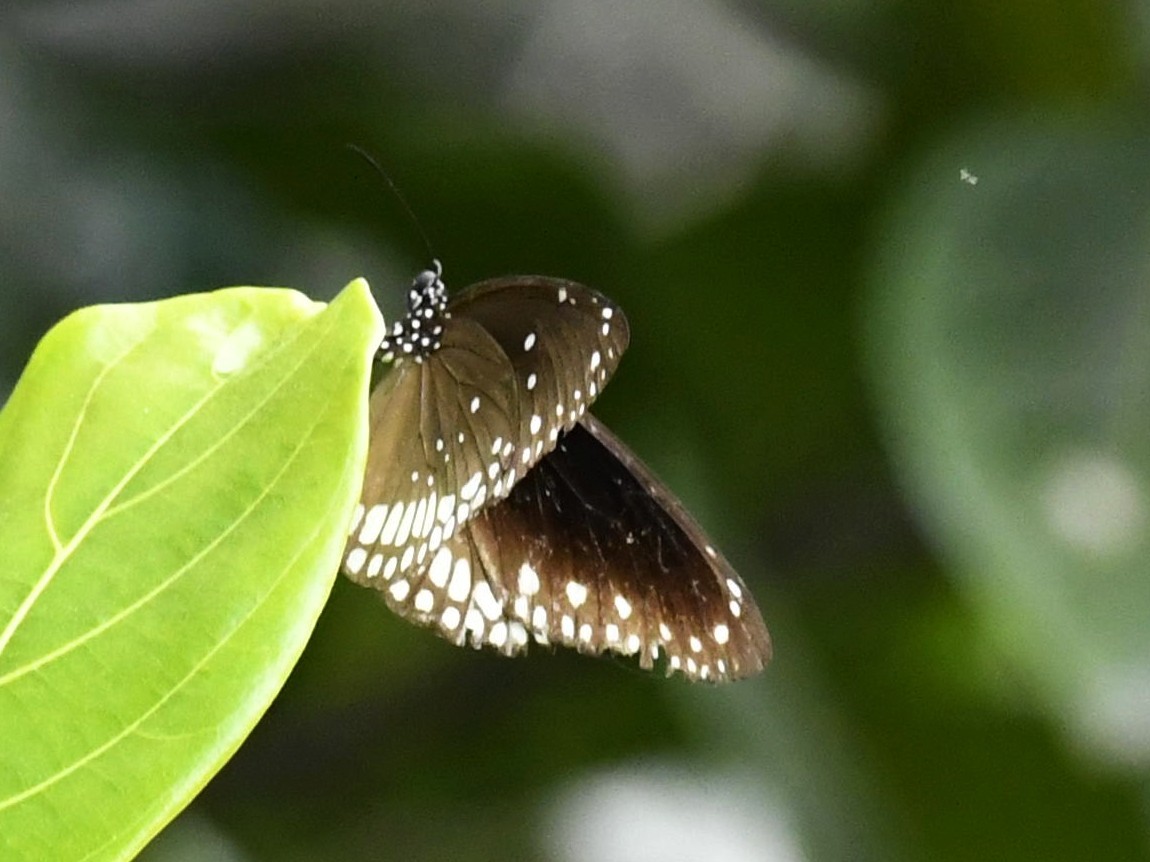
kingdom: Animalia
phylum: Arthropoda
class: Insecta
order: Lepidoptera
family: Nymphalidae
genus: Euploea
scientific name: Euploea core
